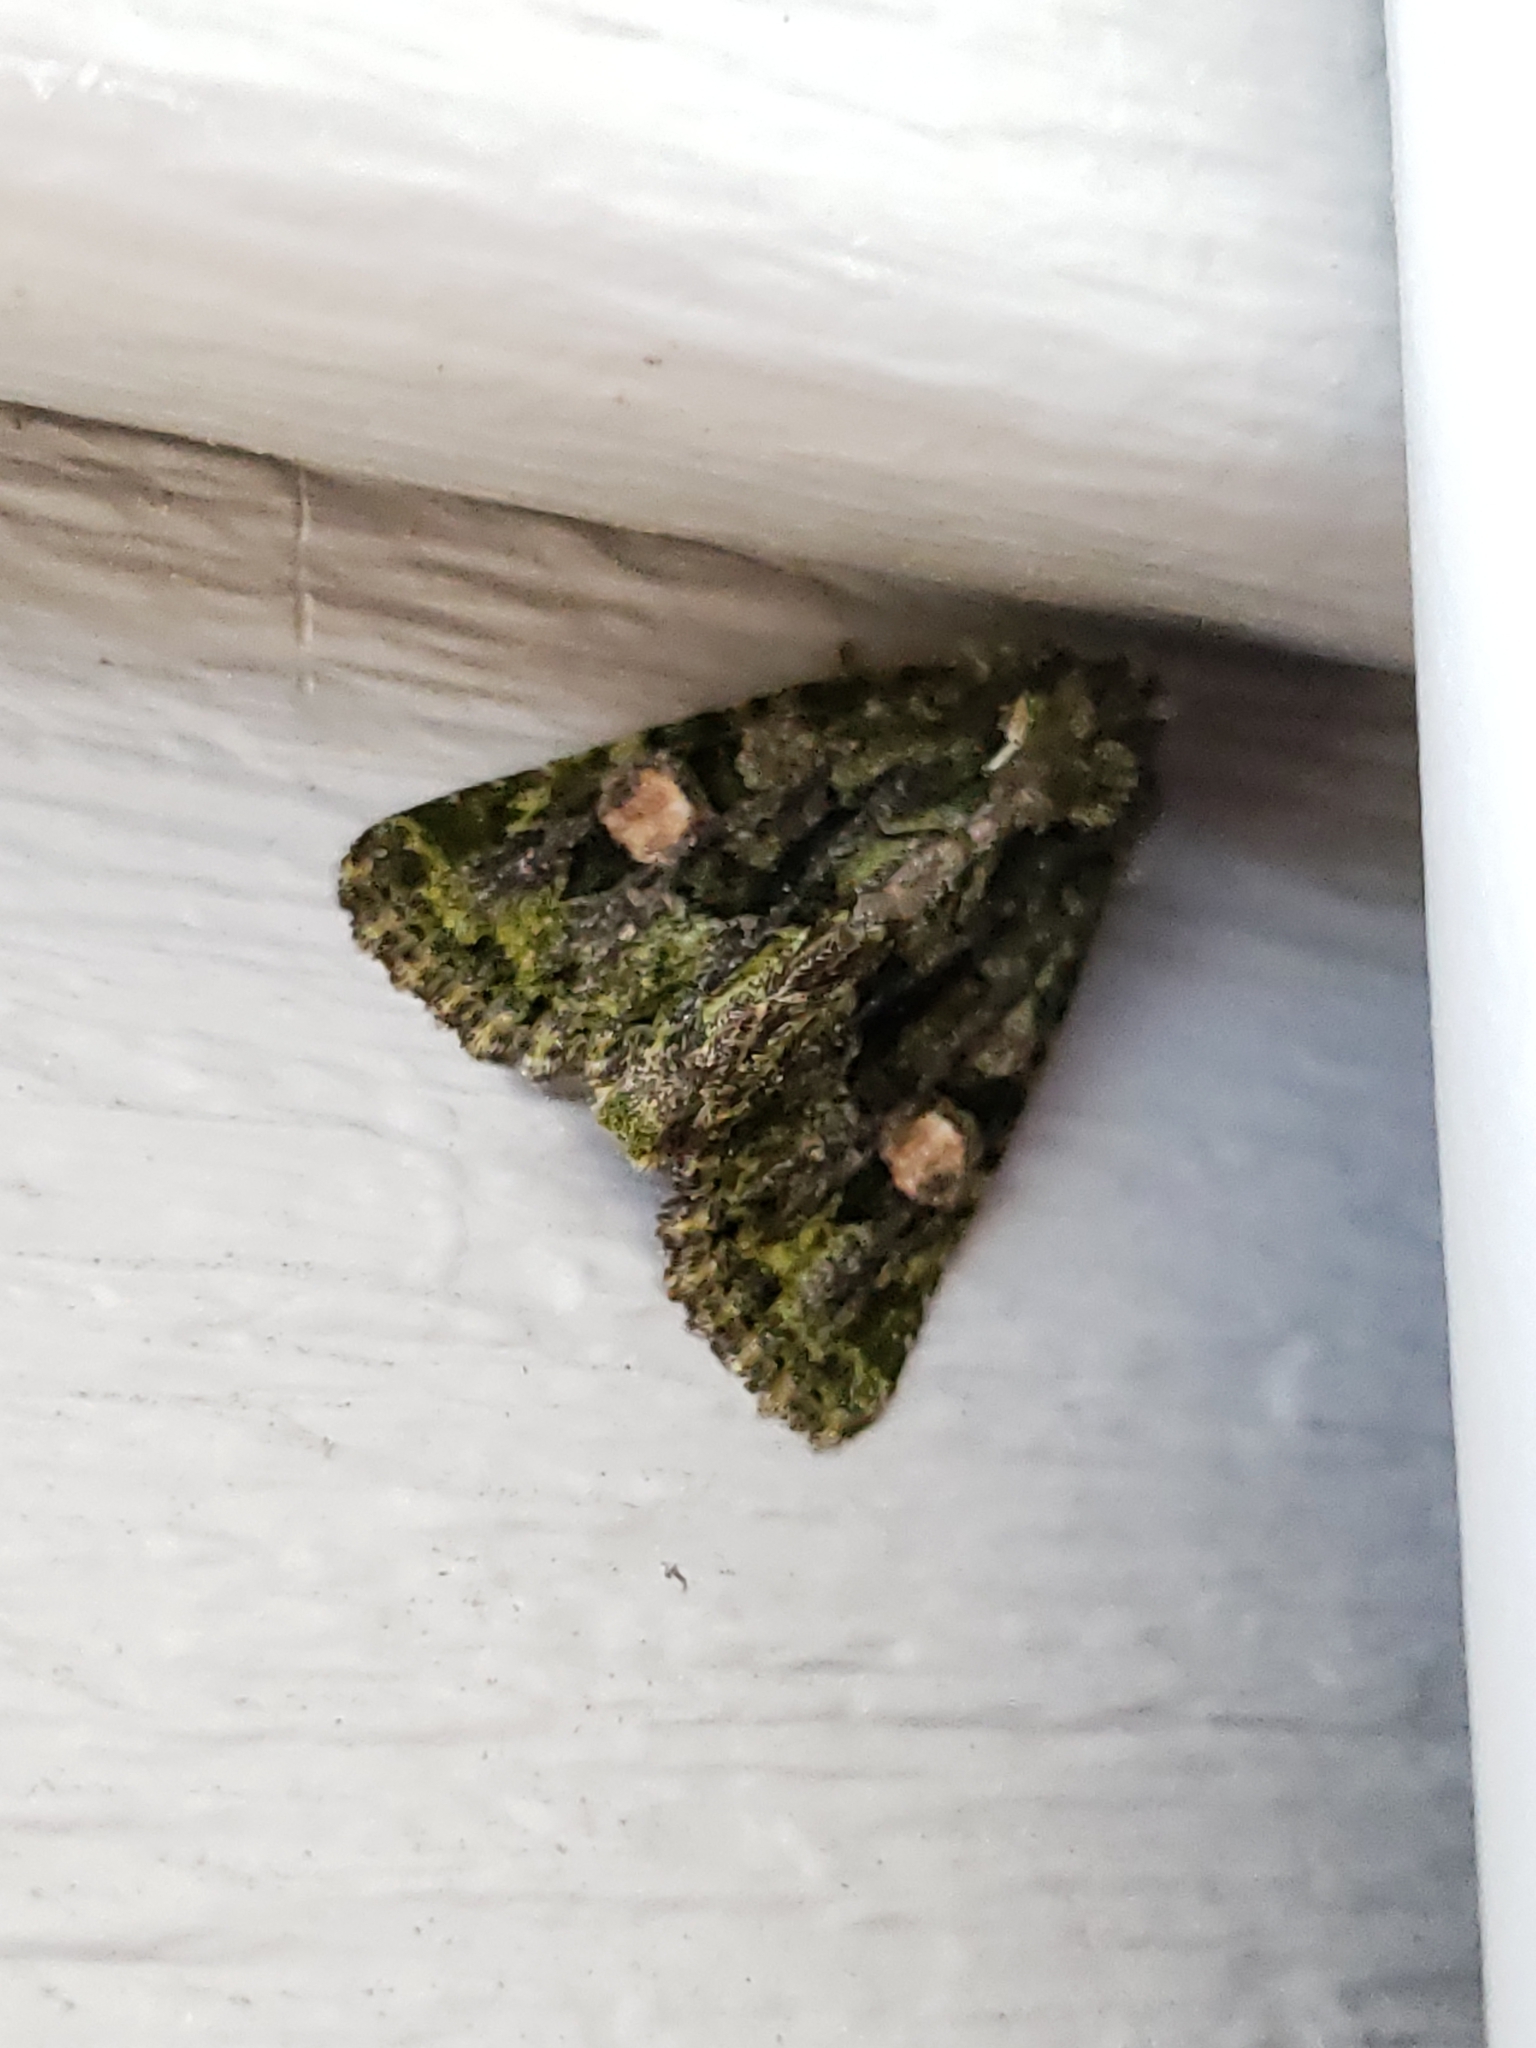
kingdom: Animalia
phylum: Arthropoda
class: Insecta
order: Lepidoptera
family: Noctuidae
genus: Phosphila
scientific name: Phosphila miselioides
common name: Spotted phosphila moth
